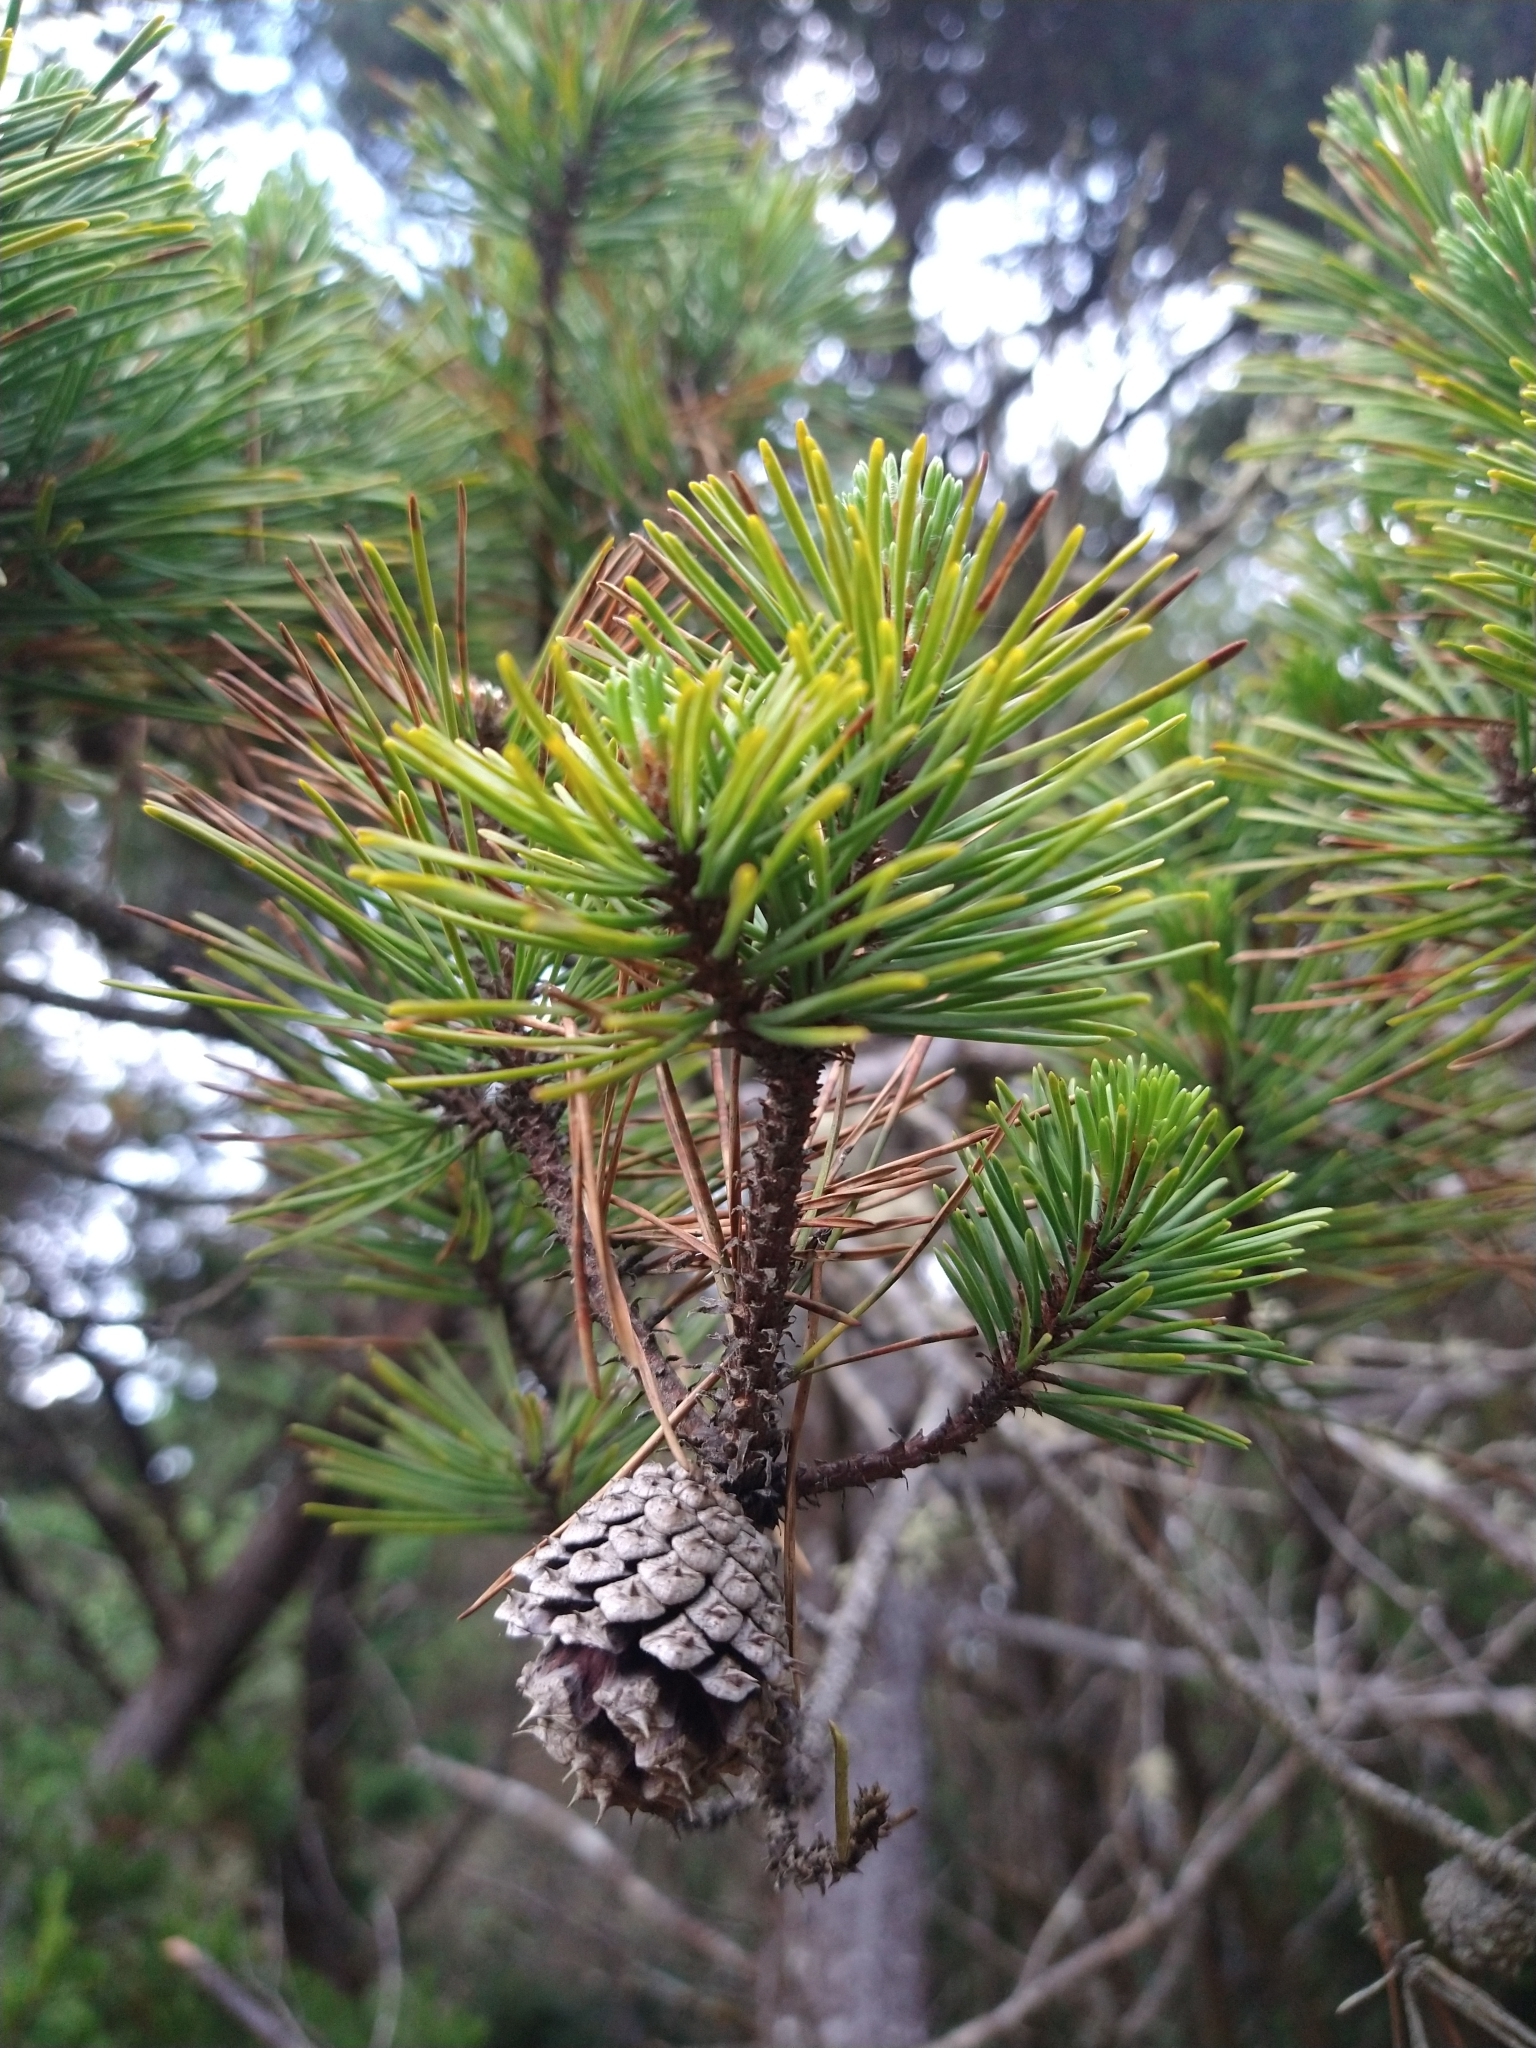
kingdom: Plantae
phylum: Tracheophyta
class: Pinopsida
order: Pinales
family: Pinaceae
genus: Pinus
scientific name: Pinus contorta
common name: Lodgepole pine
